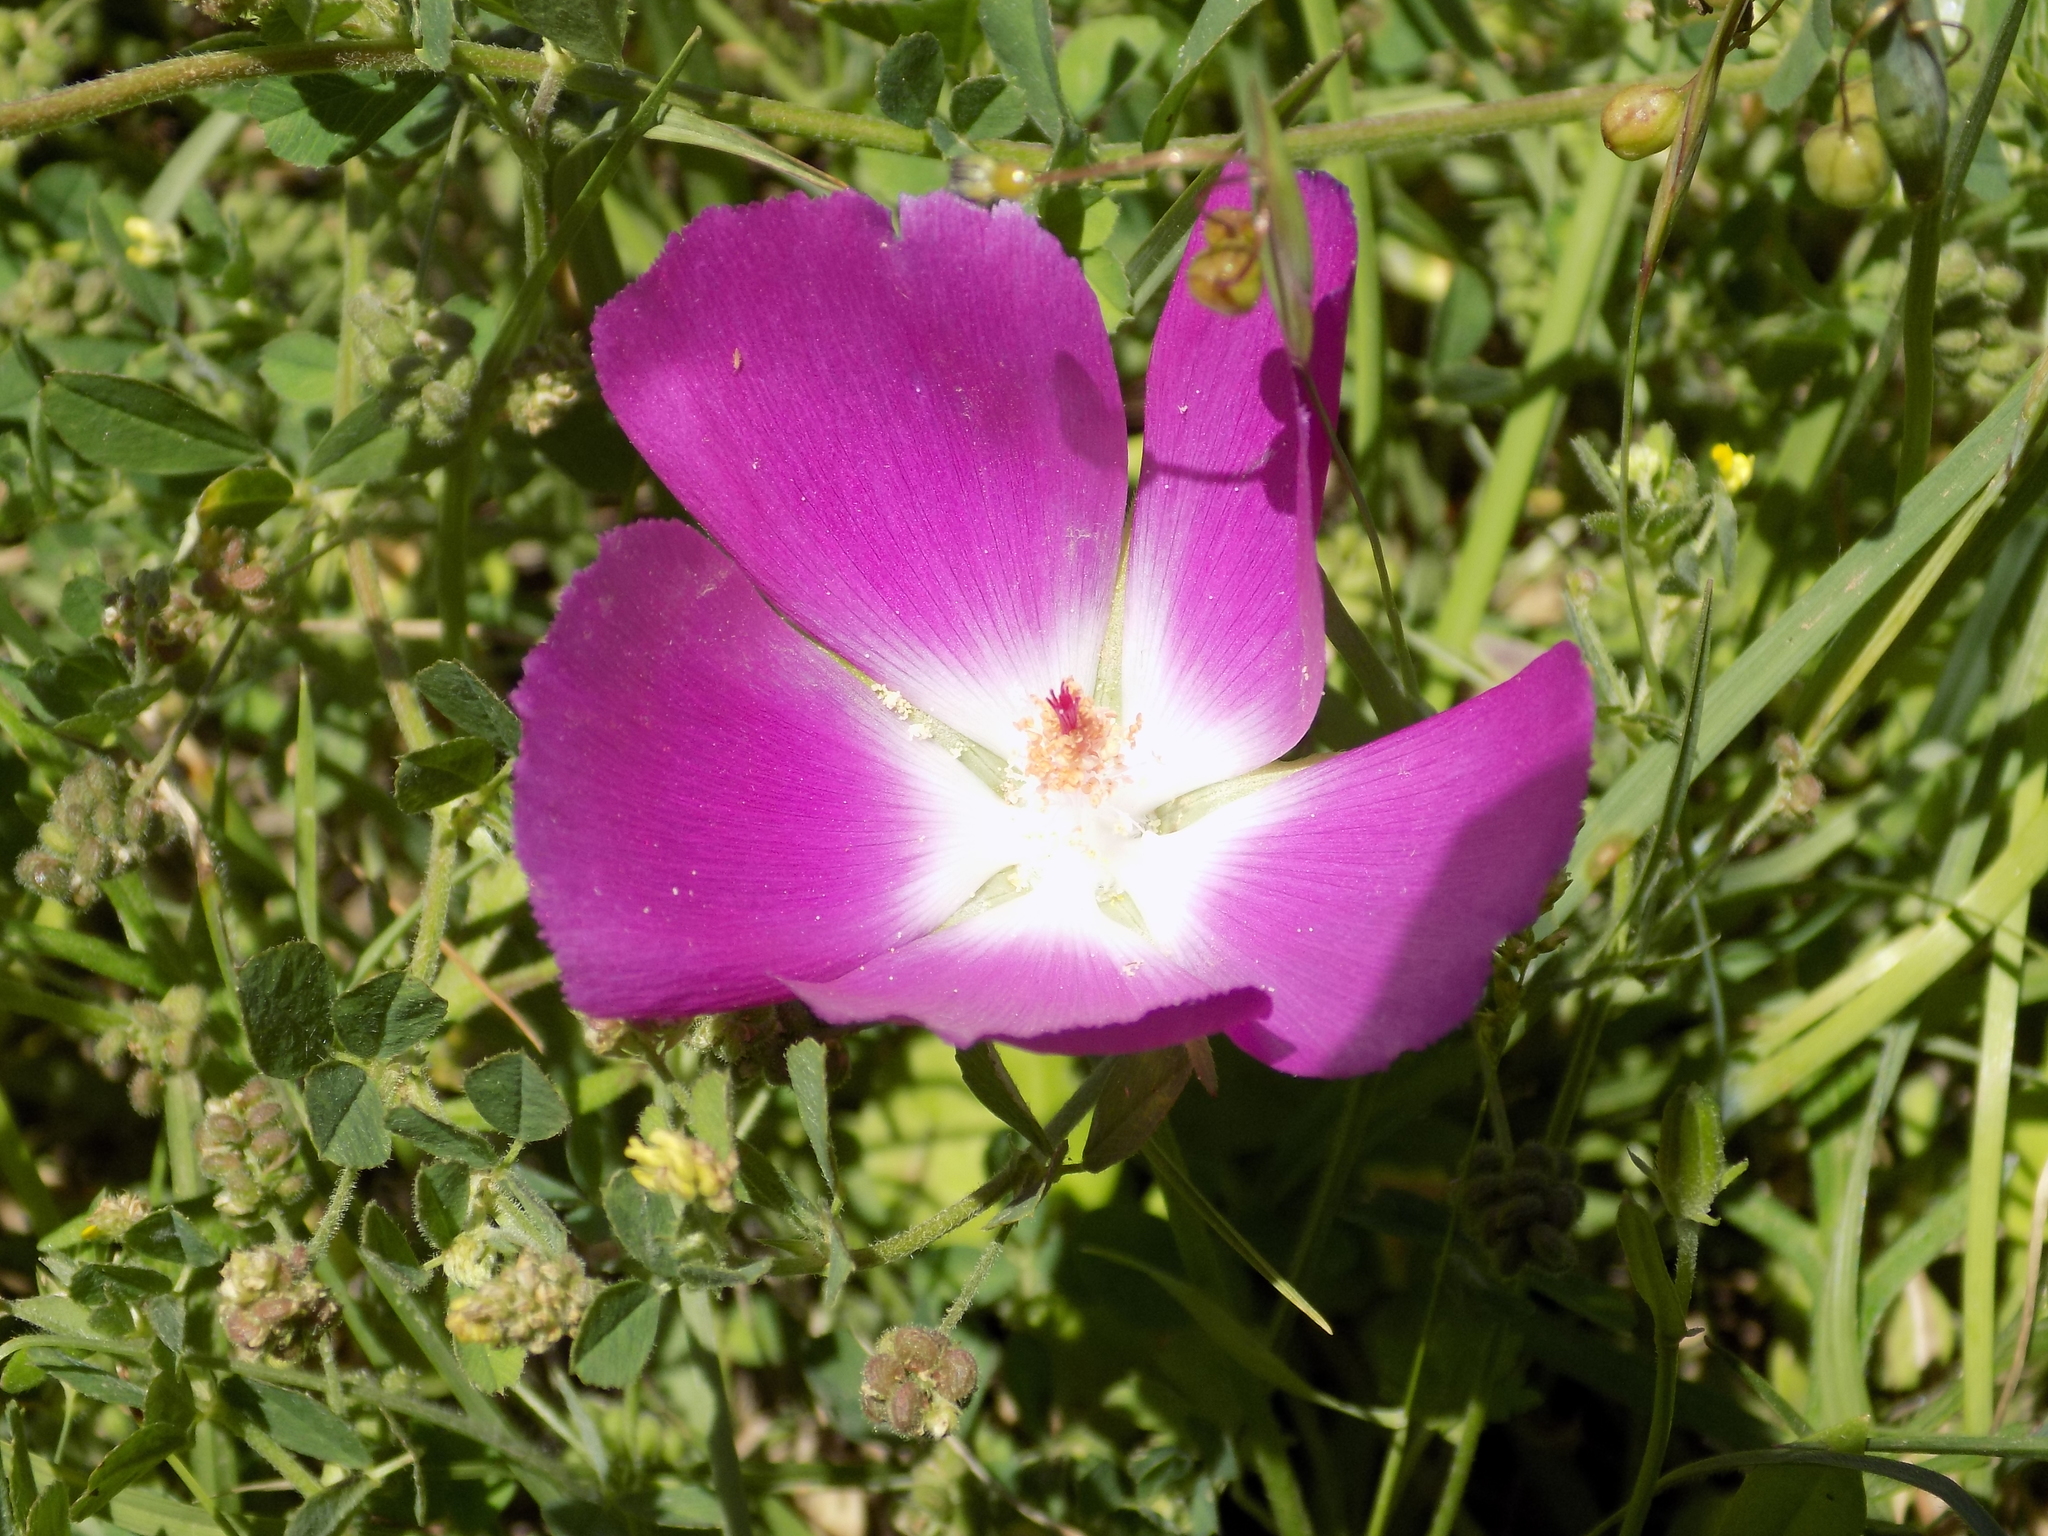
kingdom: Plantae
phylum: Tracheophyta
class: Magnoliopsida
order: Malvales
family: Malvaceae
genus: Callirhoe
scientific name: Callirhoe involucrata
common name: Purple poppy-mallow
